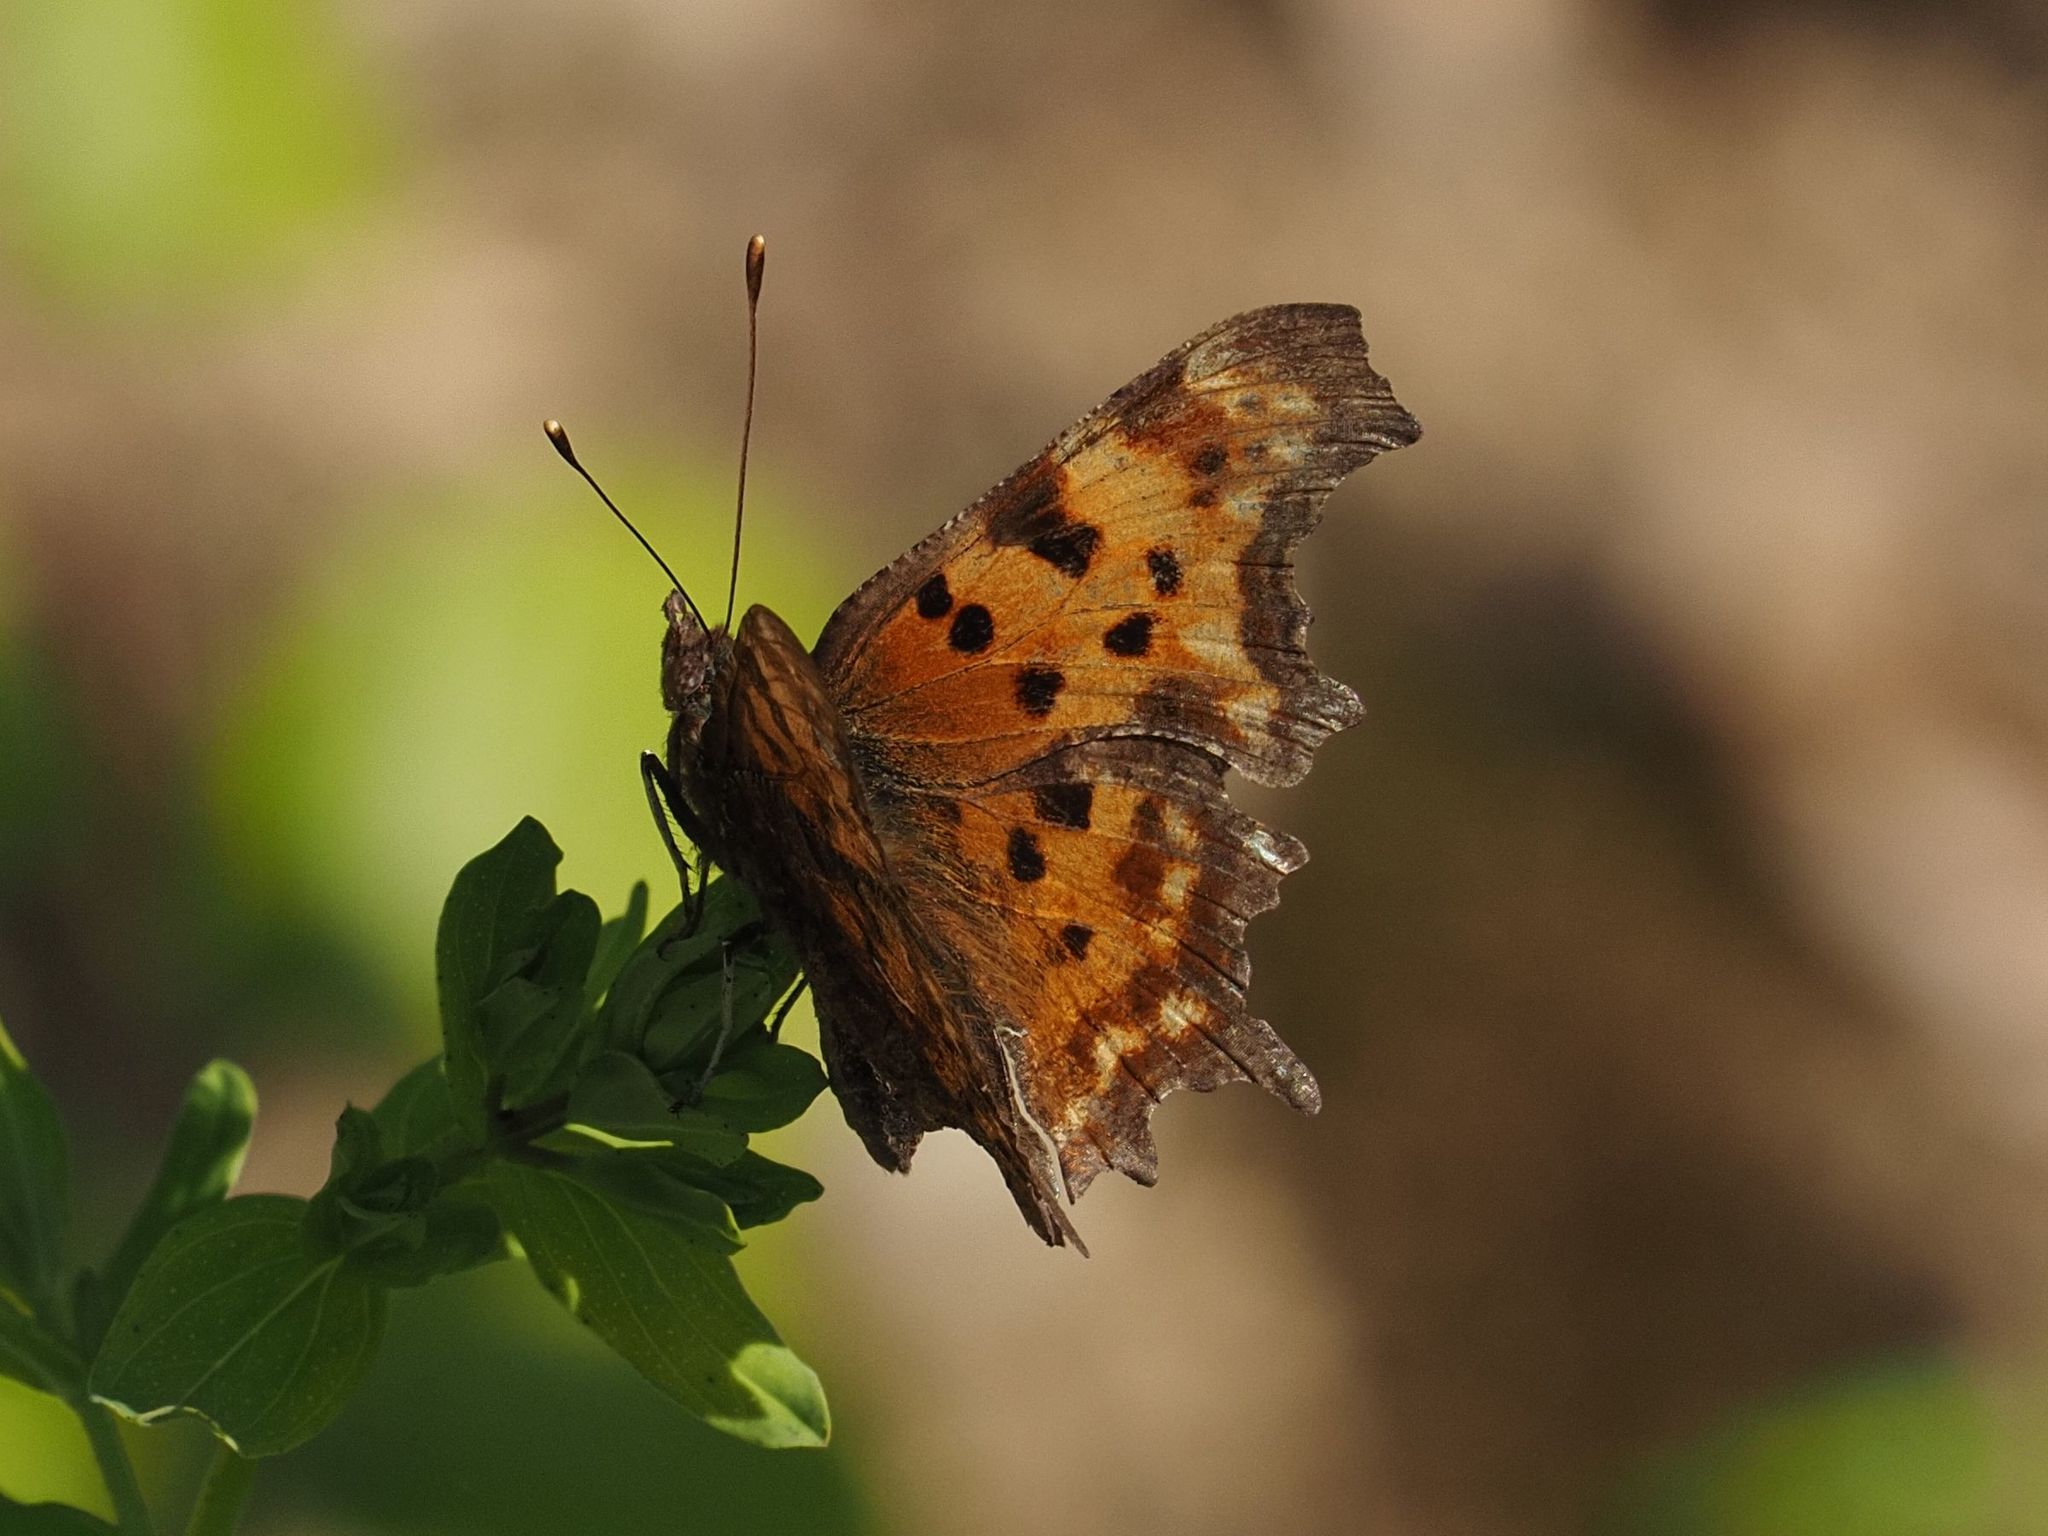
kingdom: Animalia
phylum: Arthropoda
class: Insecta
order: Lepidoptera
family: Nymphalidae
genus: Polygonia
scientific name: Polygonia c-album
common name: Comma
